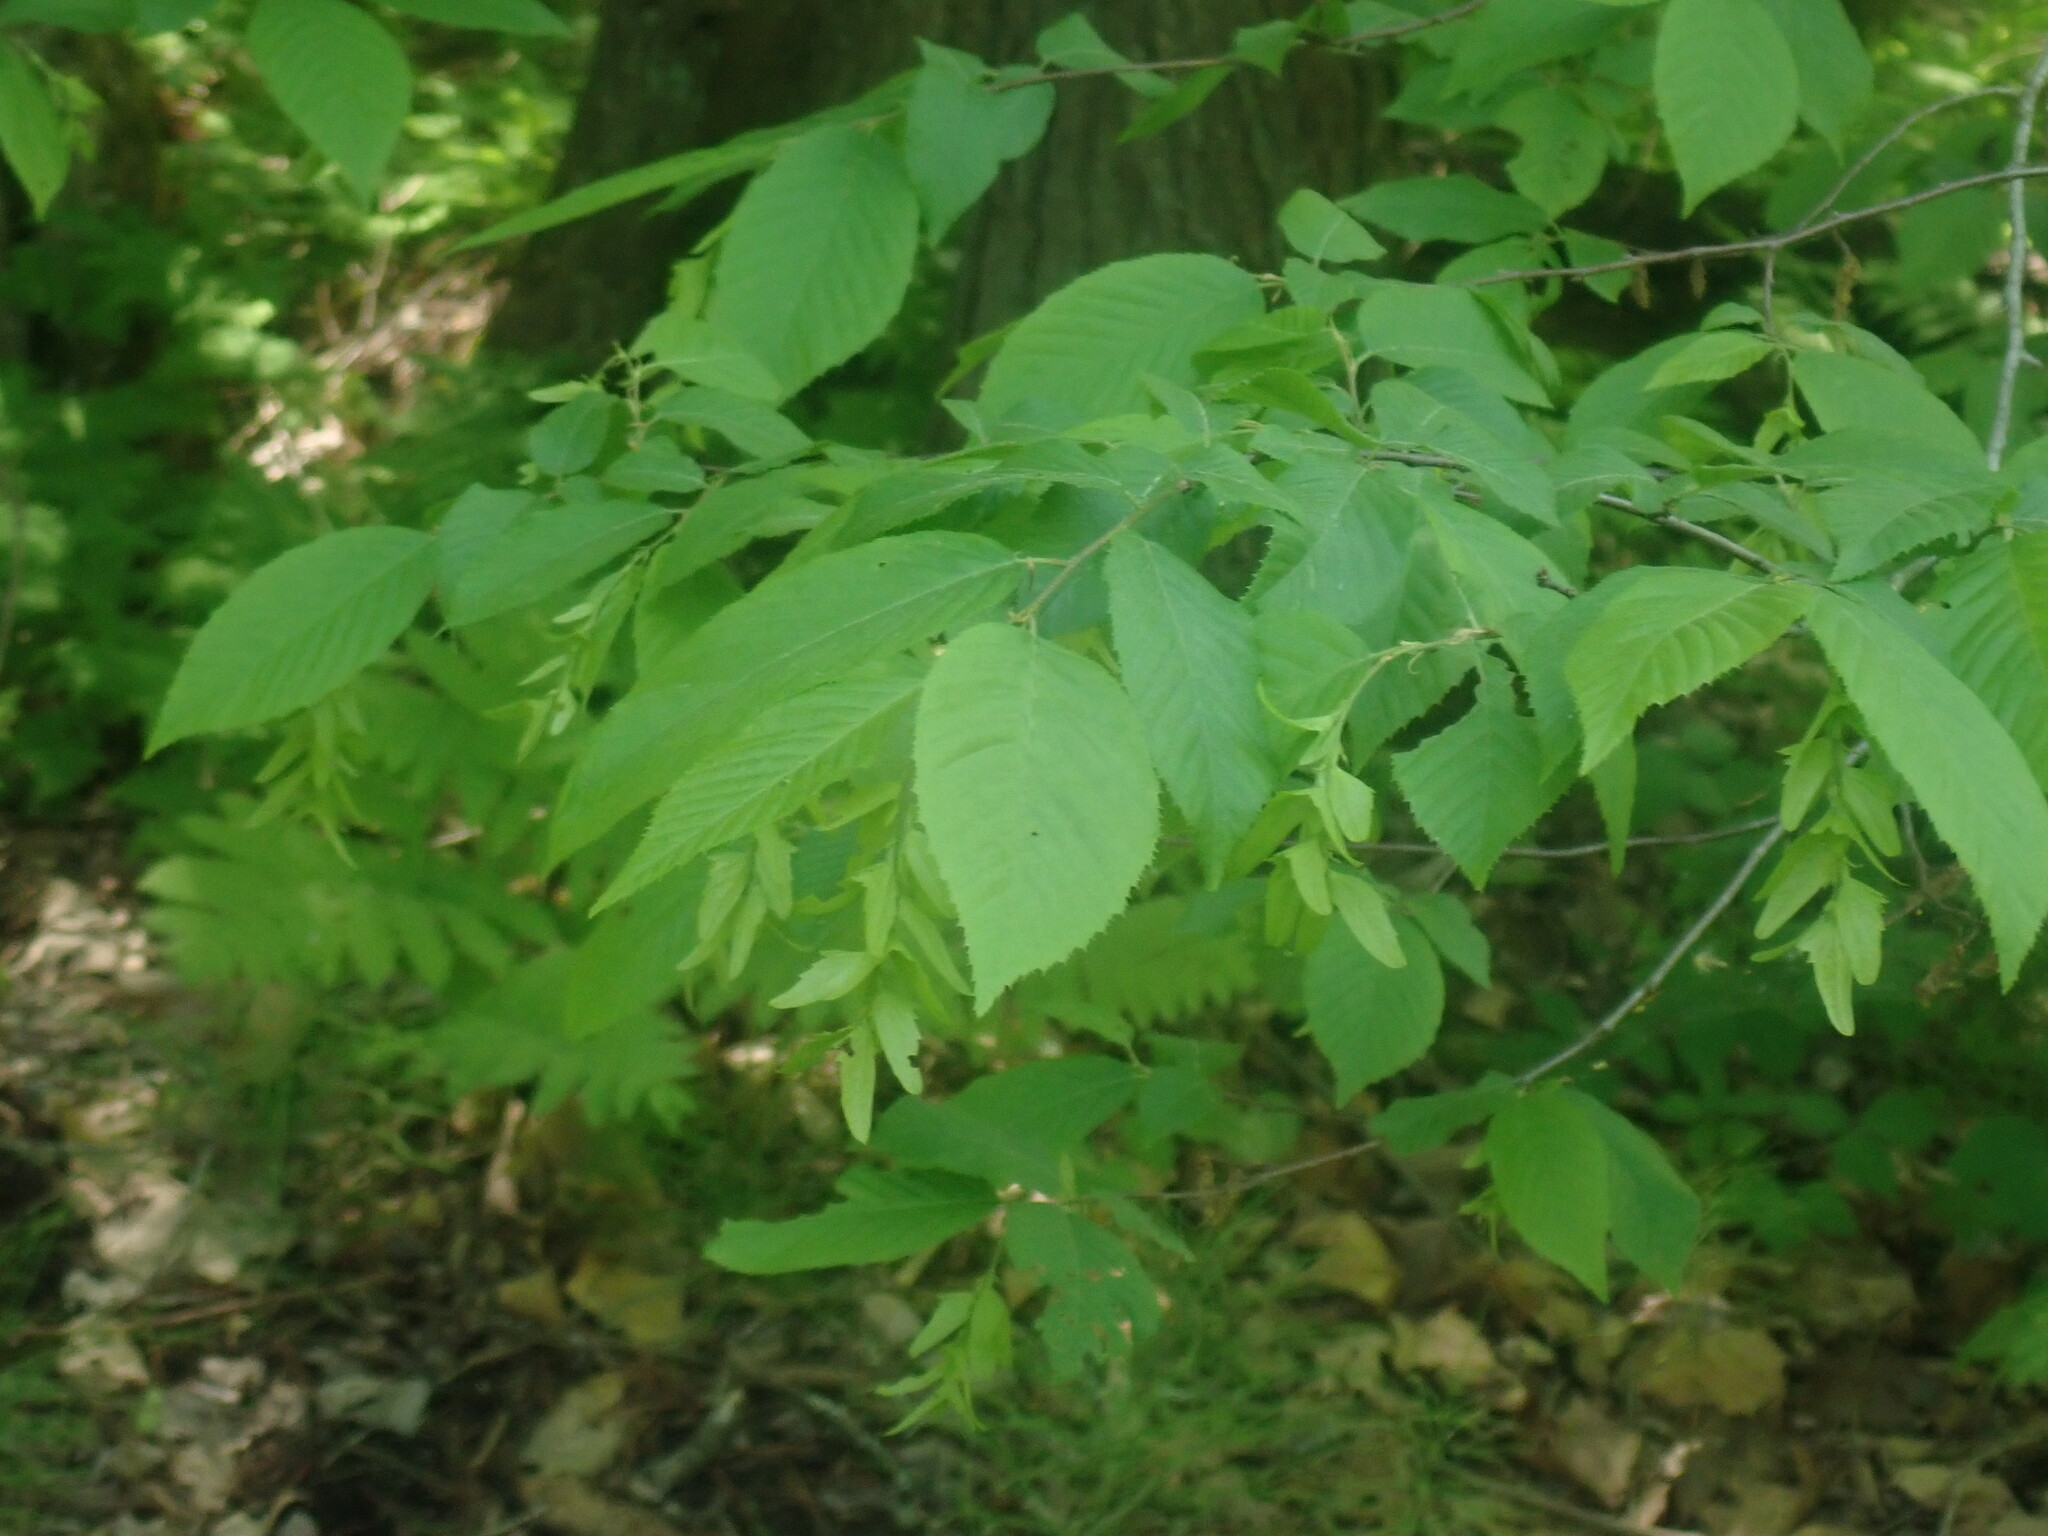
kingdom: Plantae
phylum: Tracheophyta
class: Magnoliopsida
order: Fagales
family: Betulaceae
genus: Carpinus
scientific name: Carpinus caroliniana
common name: American hornbeam
